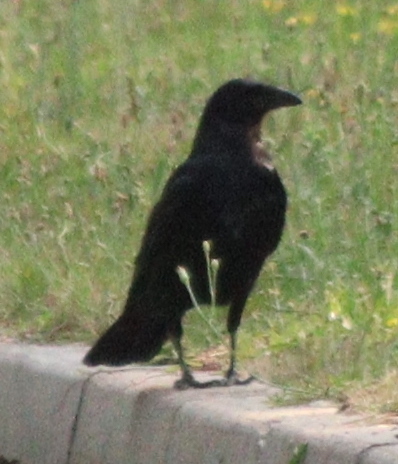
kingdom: Animalia
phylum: Chordata
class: Aves
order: Passeriformes
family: Corvidae
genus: Corvus
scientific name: Corvus corone
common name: Carrion crow
